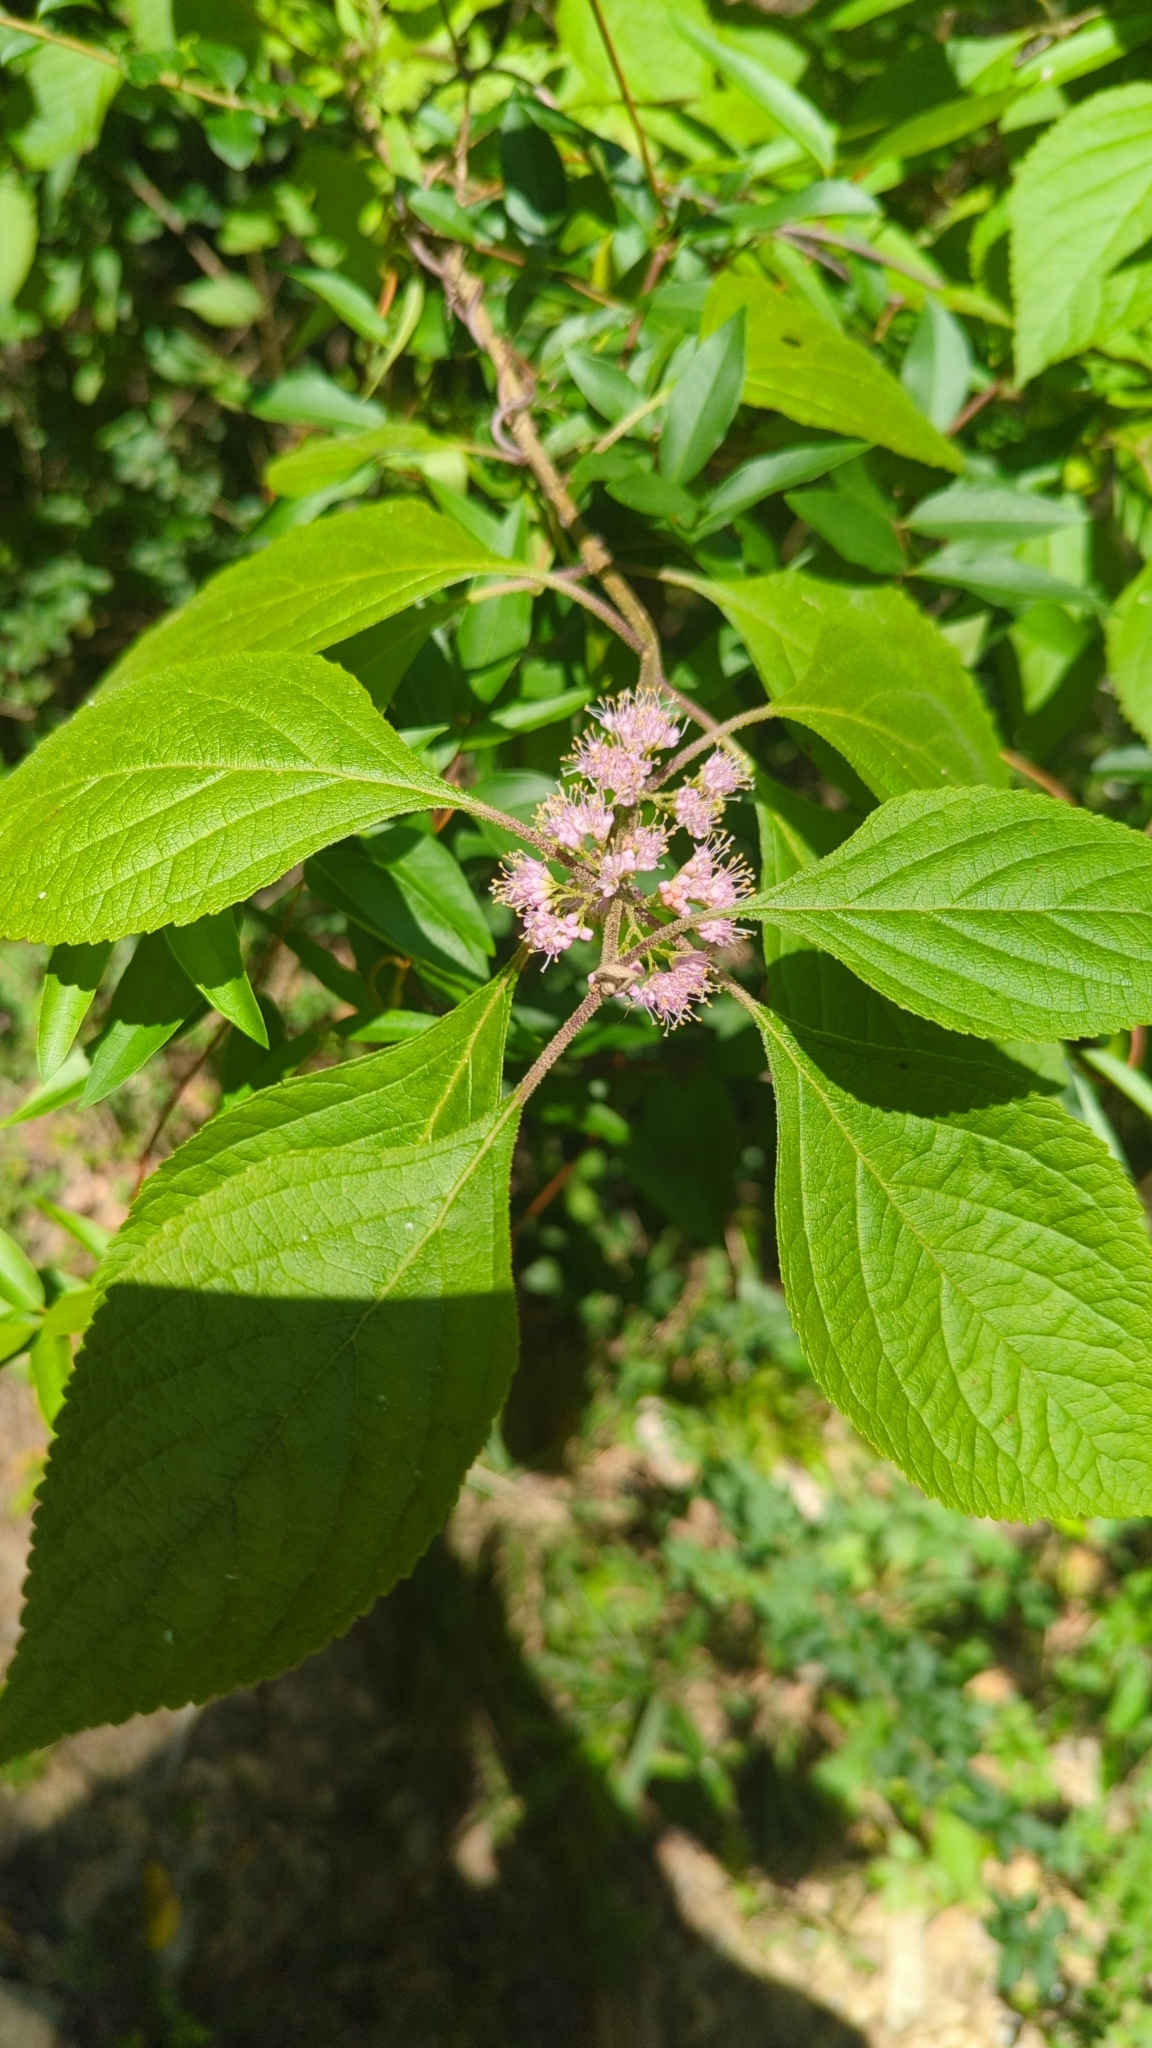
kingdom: Plantae
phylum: Tracheophyta
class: Magnoliopsida
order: Lamiales
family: Lamiaceae
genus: Callicarpa
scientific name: Callicarpa americana
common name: American beautyberry
